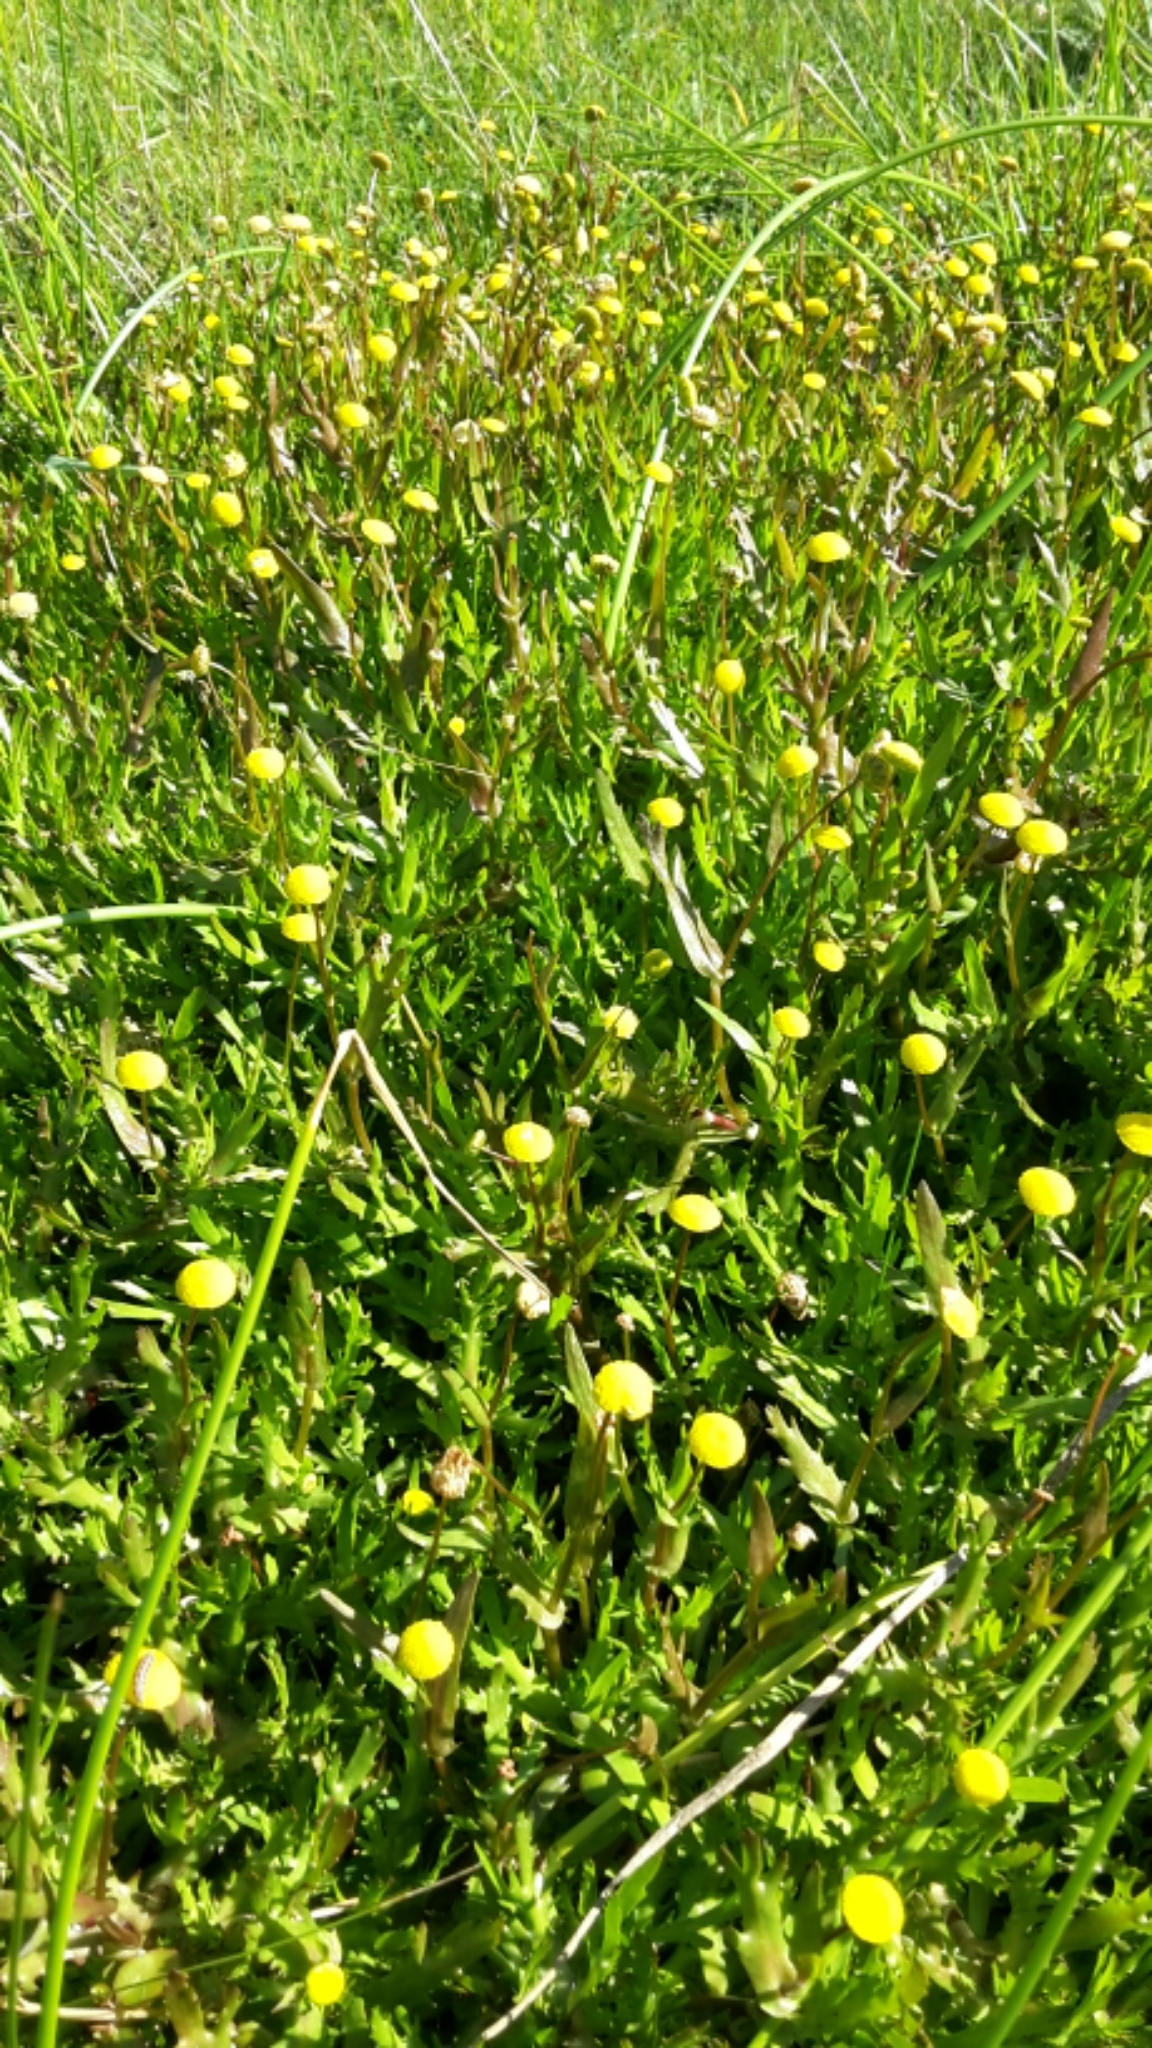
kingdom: Plantae
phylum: Tracheophyta
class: Magnoliopsida
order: Asterales
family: Asteraceae
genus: Cotula
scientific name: Cotula coronopifolia
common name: Buttonweed
